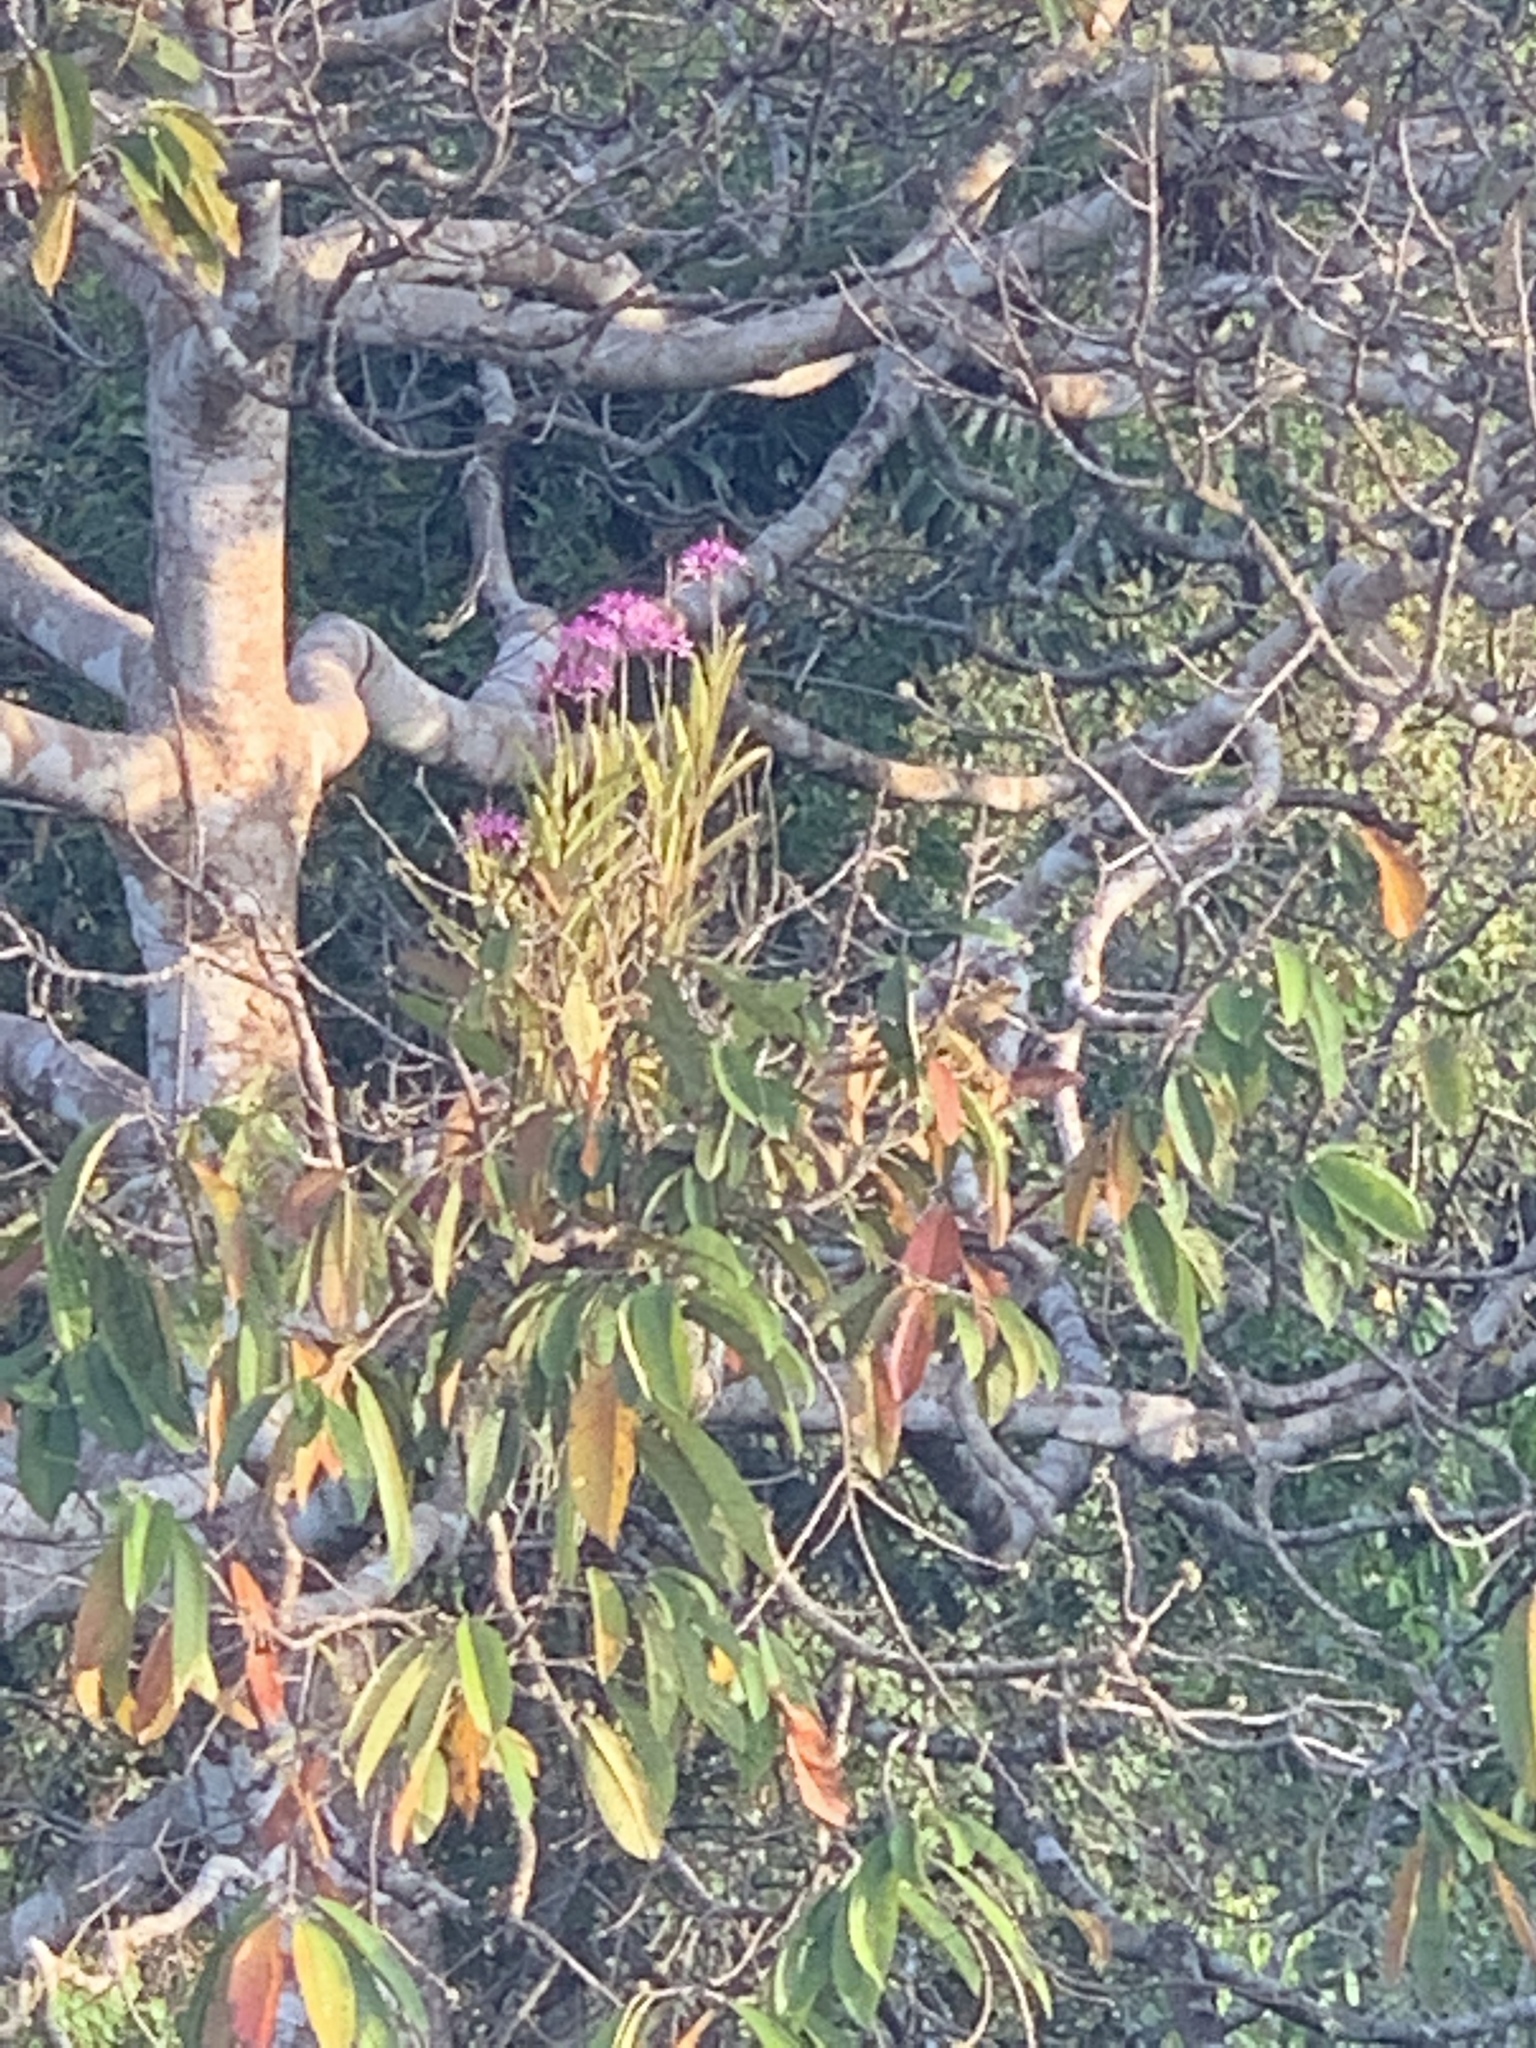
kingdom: Plantae
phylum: Tracheophyta
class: Liliopsida
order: Asparagales
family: Orchidaceae
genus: Epidendrum
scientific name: Epidendrum flexuosum
